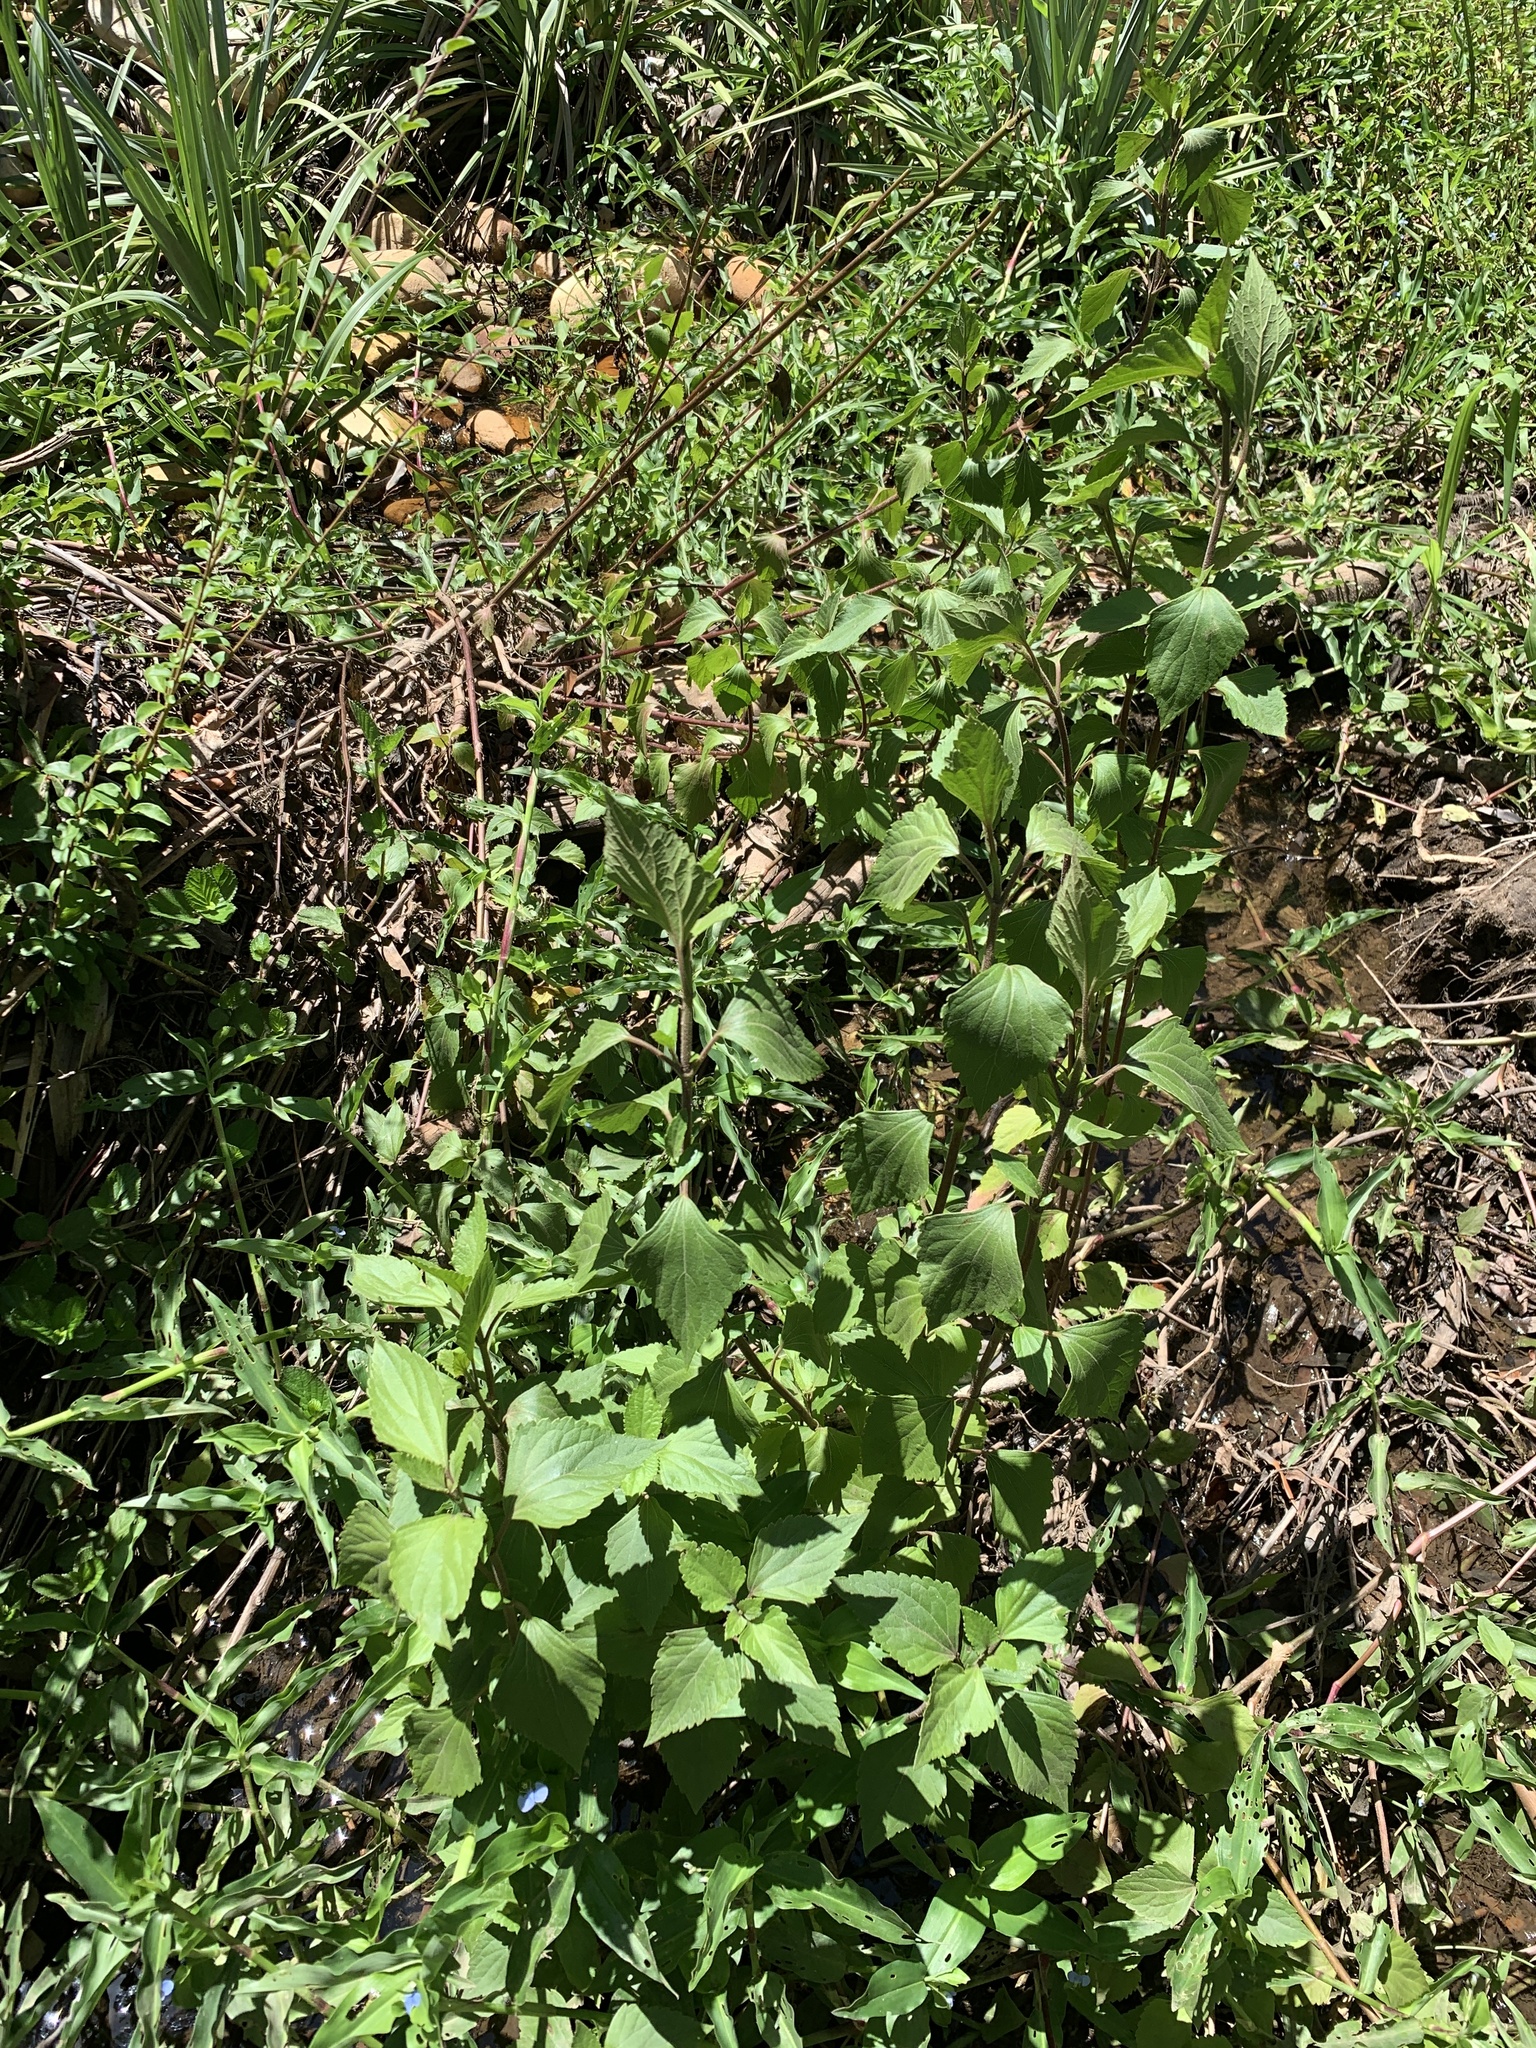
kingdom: Plantae
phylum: Tracheophyta
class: Magnoliopsida
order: Asterales
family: Asteraceae
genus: Ageratina
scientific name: Ageratina adenophora
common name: Sticky snakeroot
